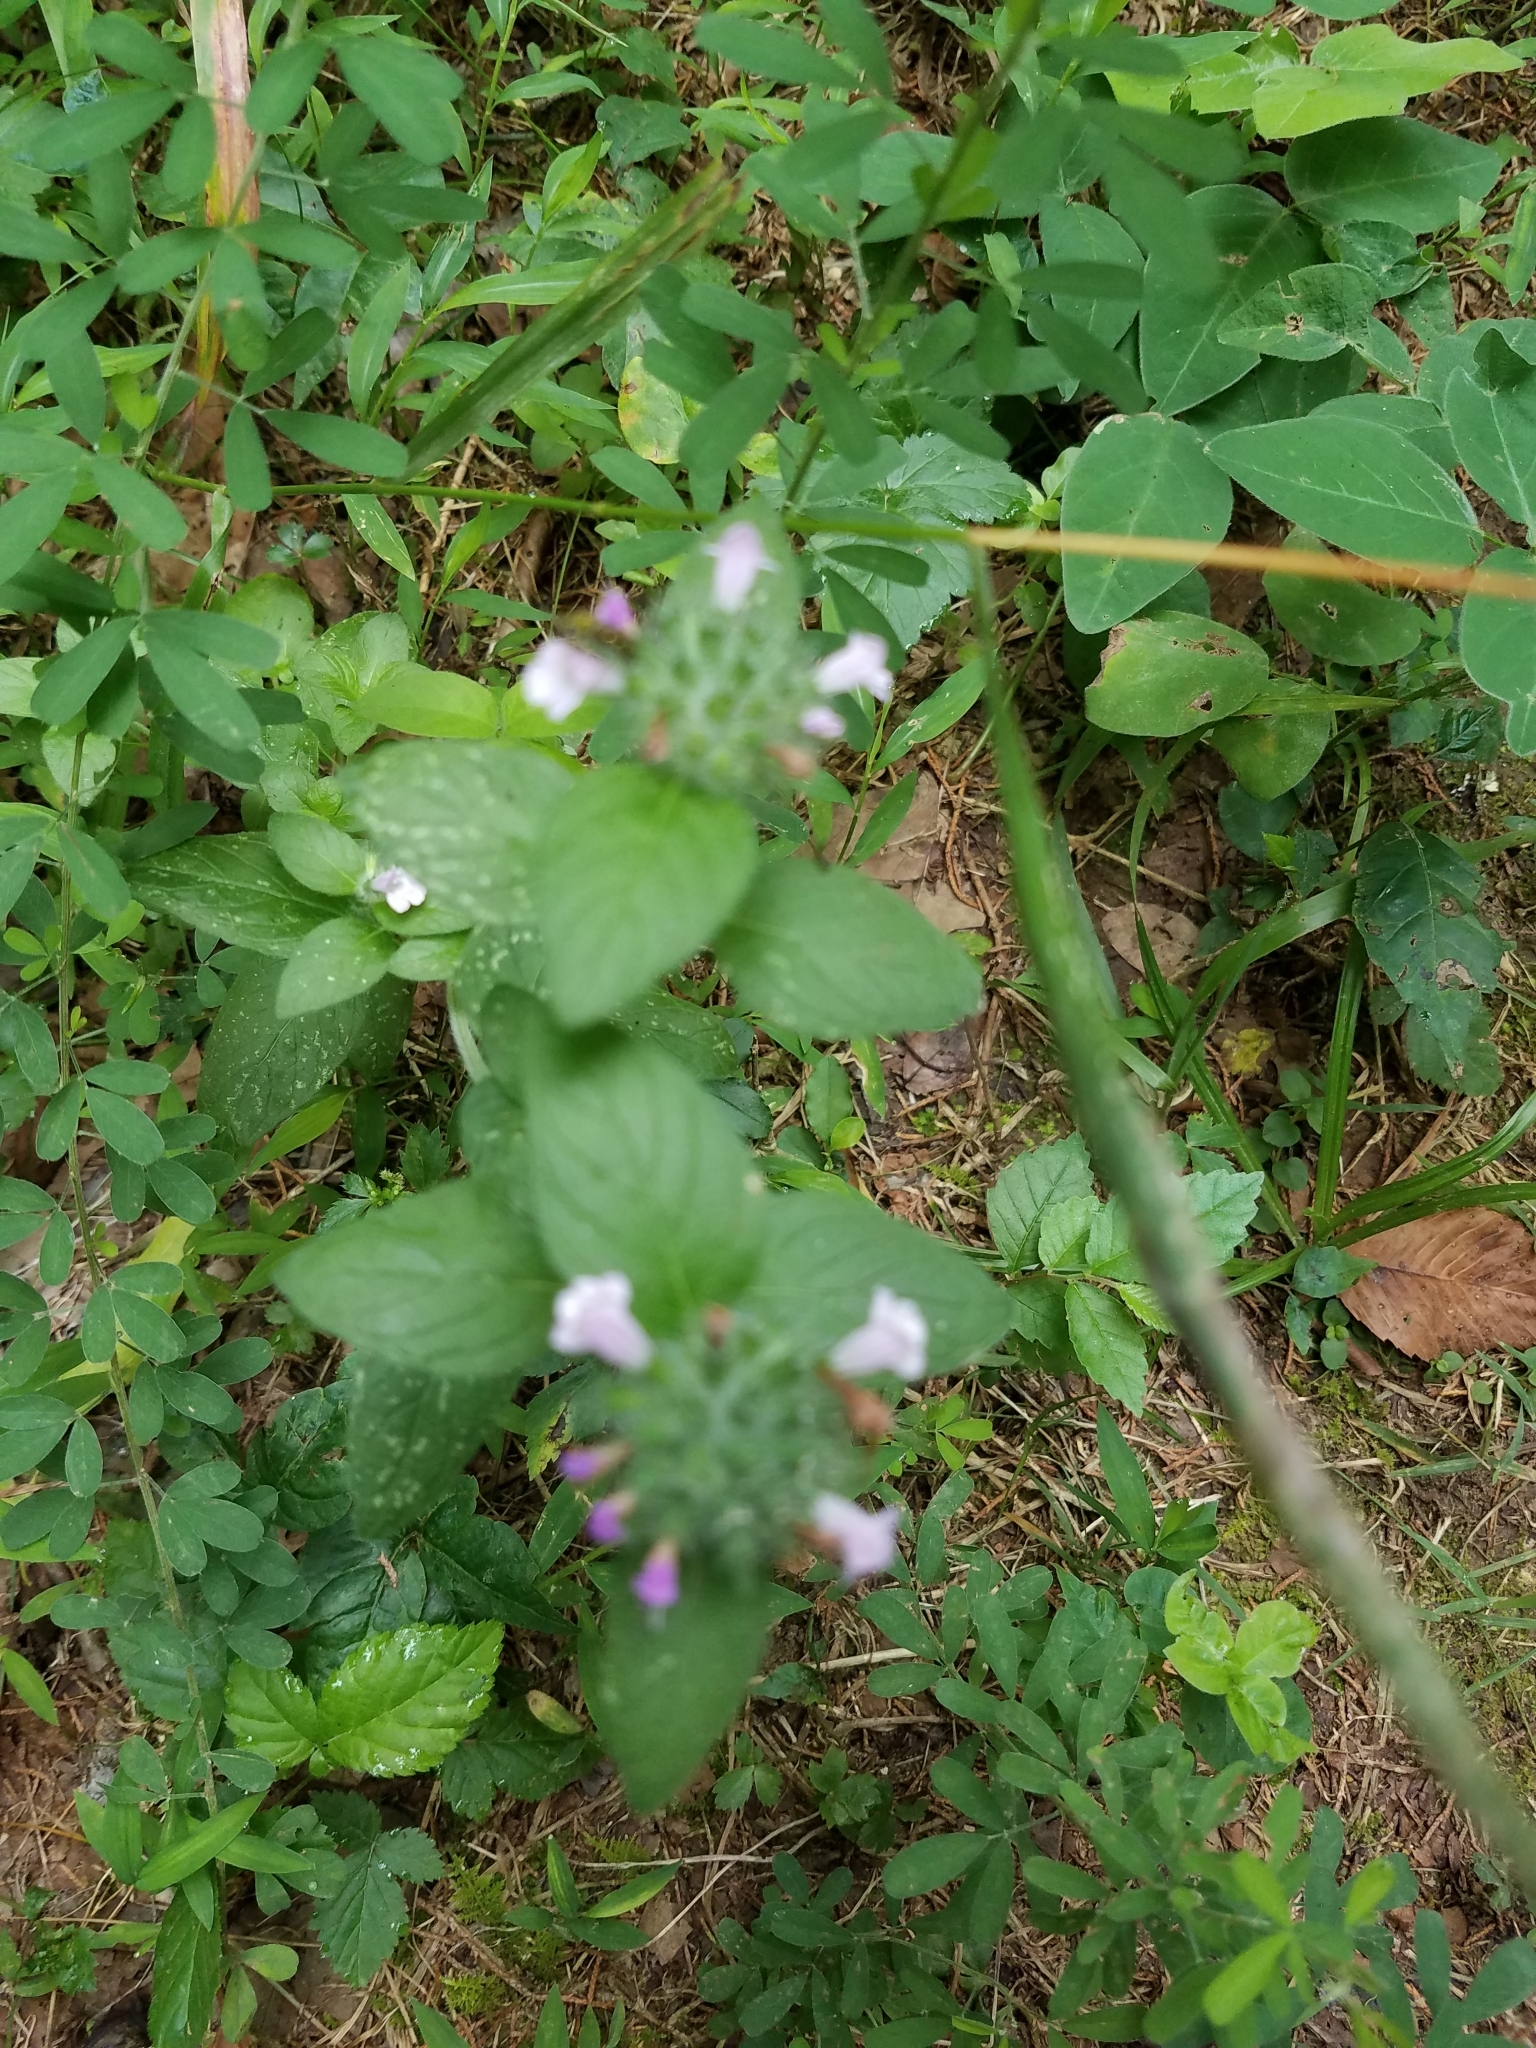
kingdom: Plantae
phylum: Tracheophyta
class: Magnoliopsida
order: Lamiales
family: Lamiaceae
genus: Clinopodium
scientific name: Clinopodium vulgare
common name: Wild basil
